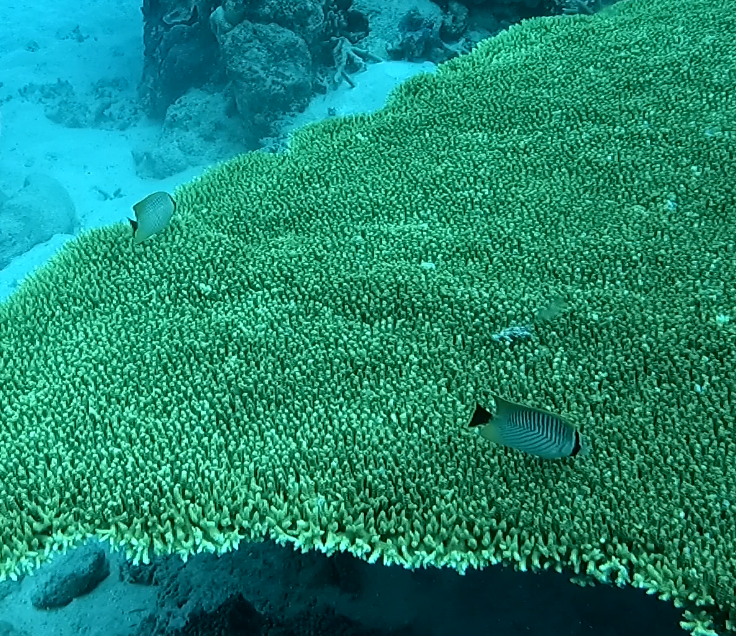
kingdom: Animalia
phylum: Chordata
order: Perciformes
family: Chaetodontidae
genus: Chaetodon
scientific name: Chaetodon trifascialis
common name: Chevroned butterflyfish
